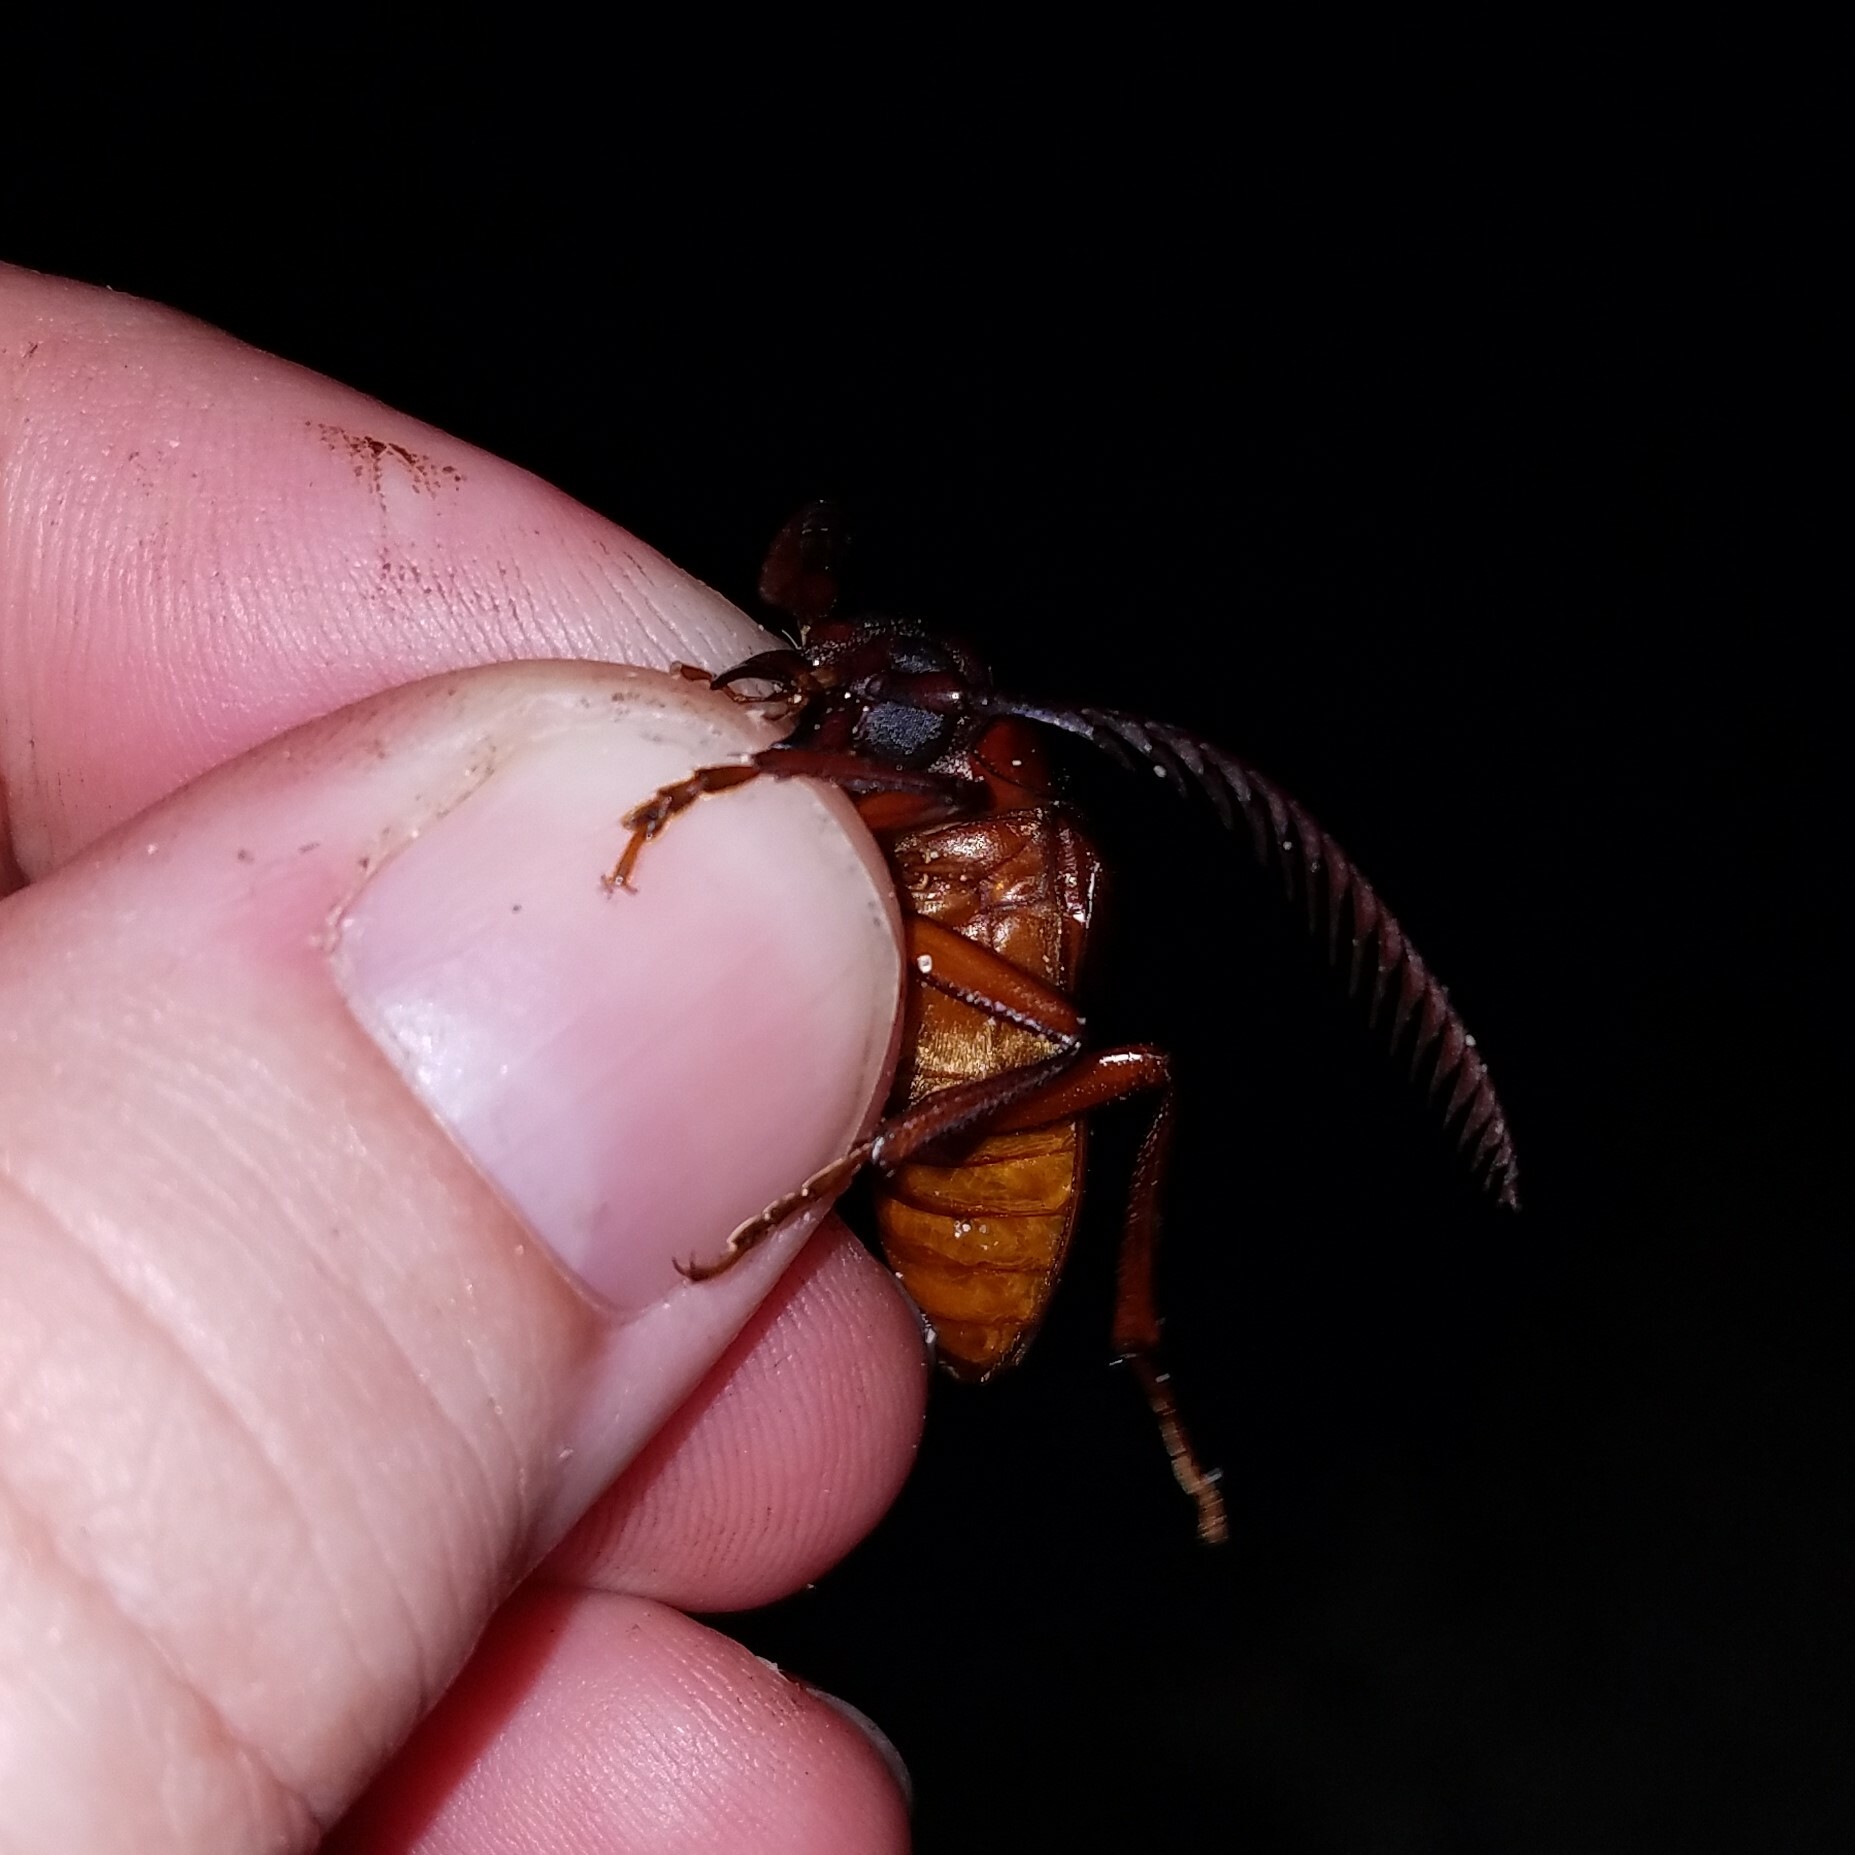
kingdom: Animalia
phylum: Arthropoda
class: Insecta
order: Coleoptera
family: Cerambycidae
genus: Prionus
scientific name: Prionus imbricornis
